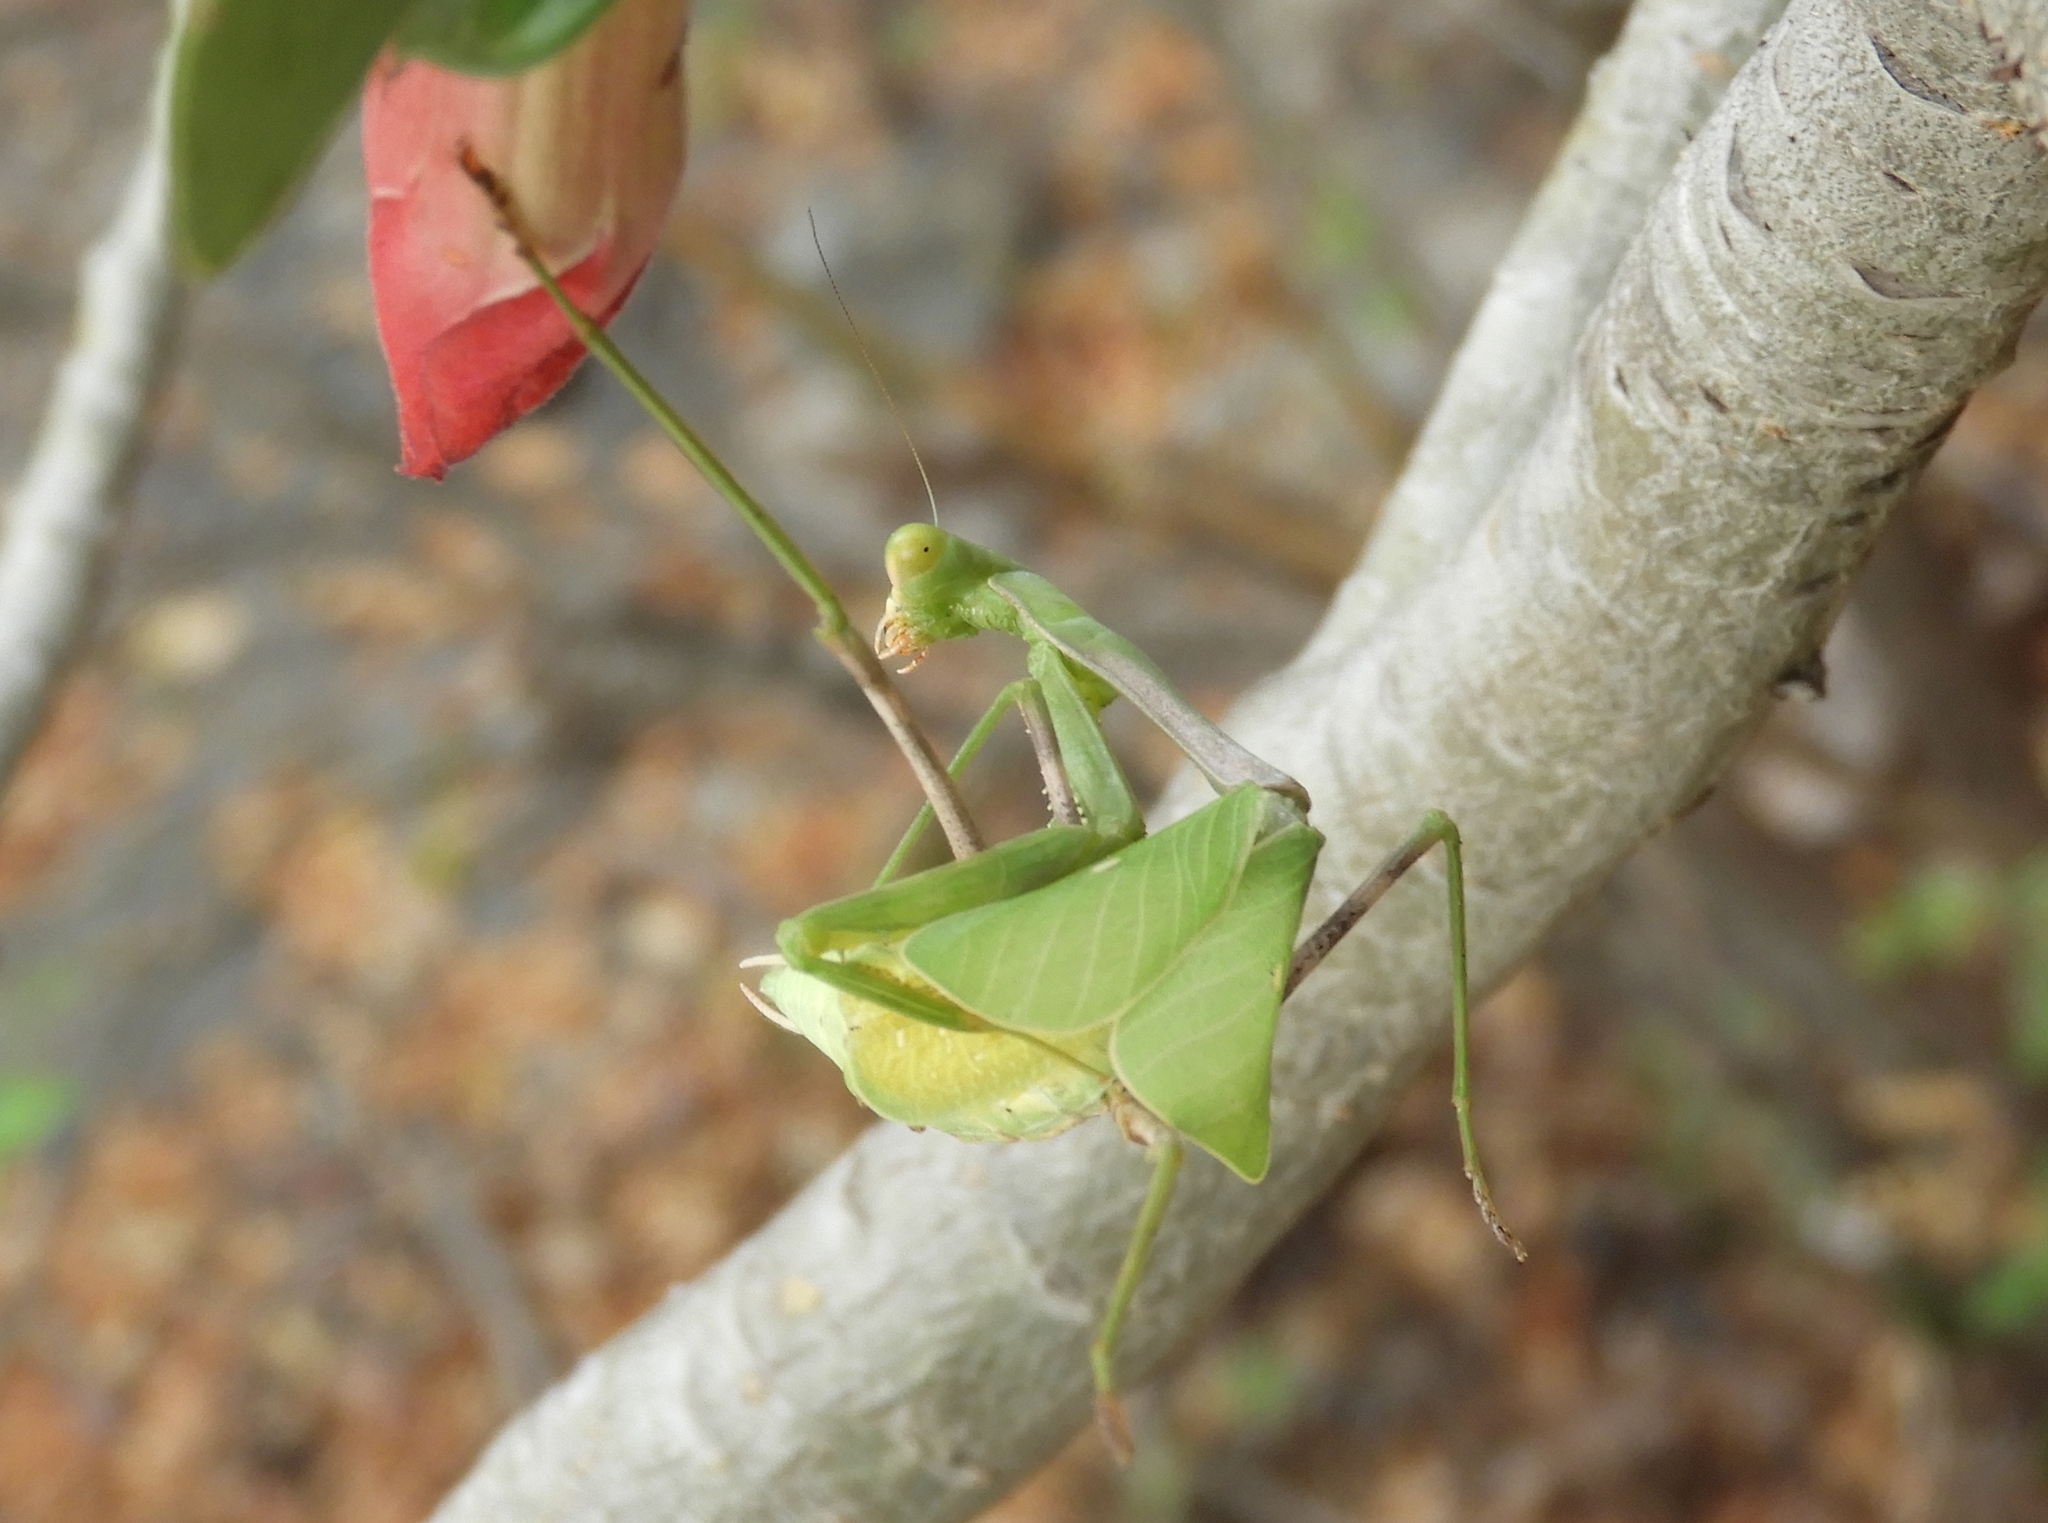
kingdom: Animalia
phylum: Arthropoda
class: Insecta
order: Mantodea
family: Mantidae
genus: Stagmomantis
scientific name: Stagmomantis limbata
